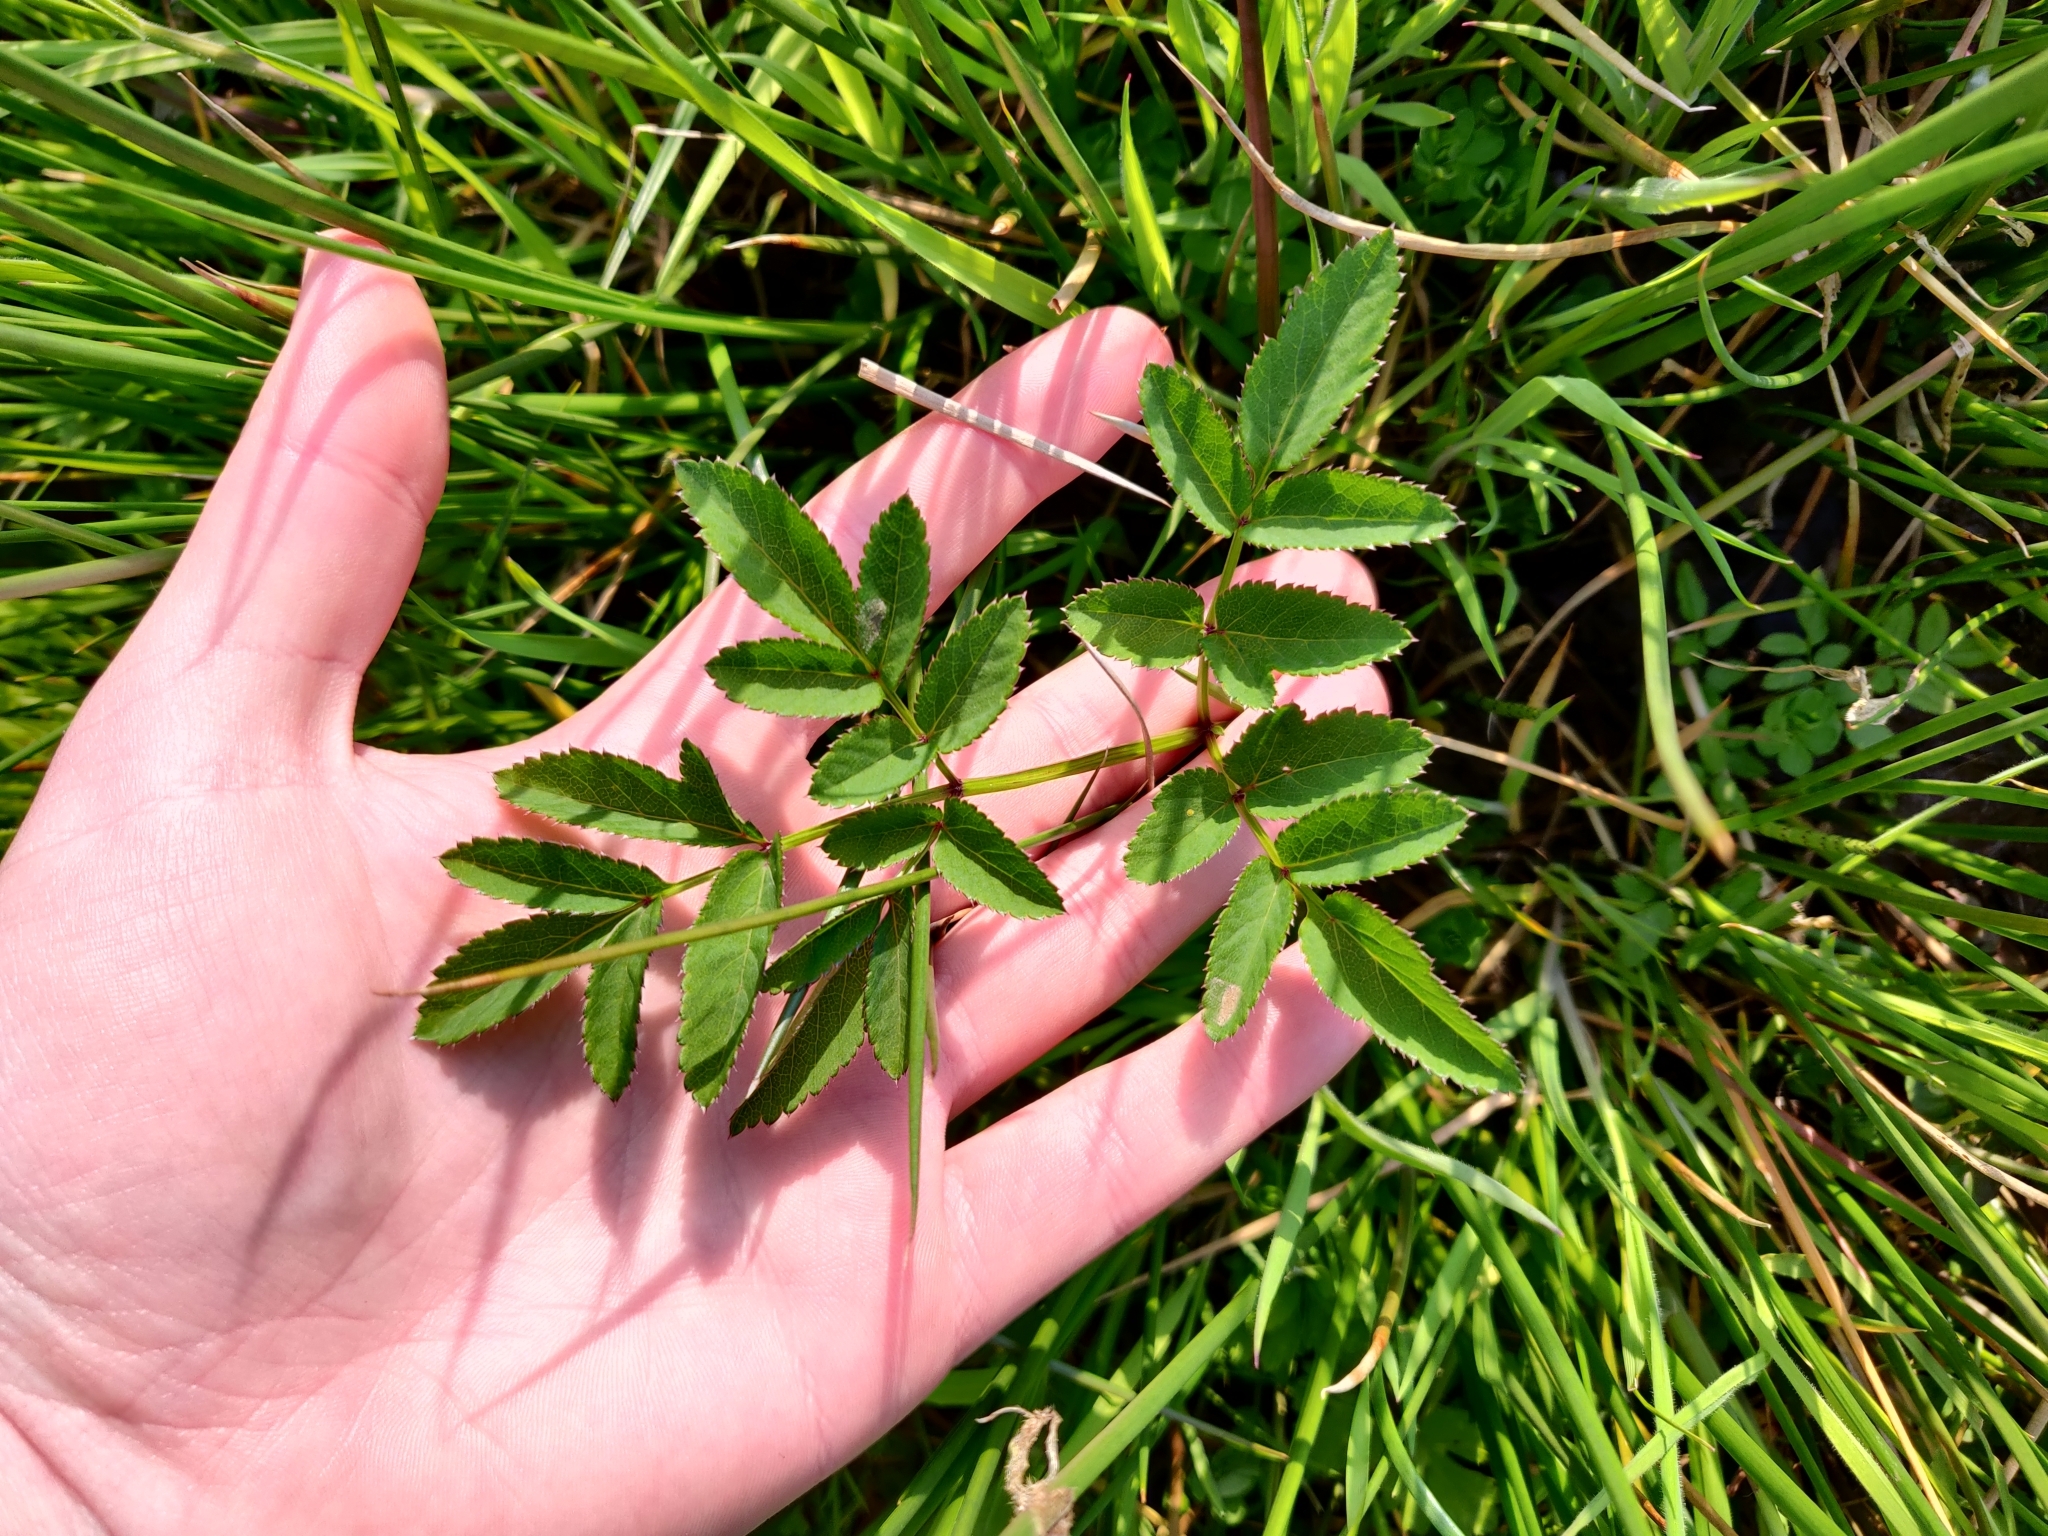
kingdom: Plantae
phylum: Tracheophyta
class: Magnoliopsida
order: Apiales
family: Apiaceae
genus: Angelica
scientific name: Angelica sylvestris
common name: Wild angelica
